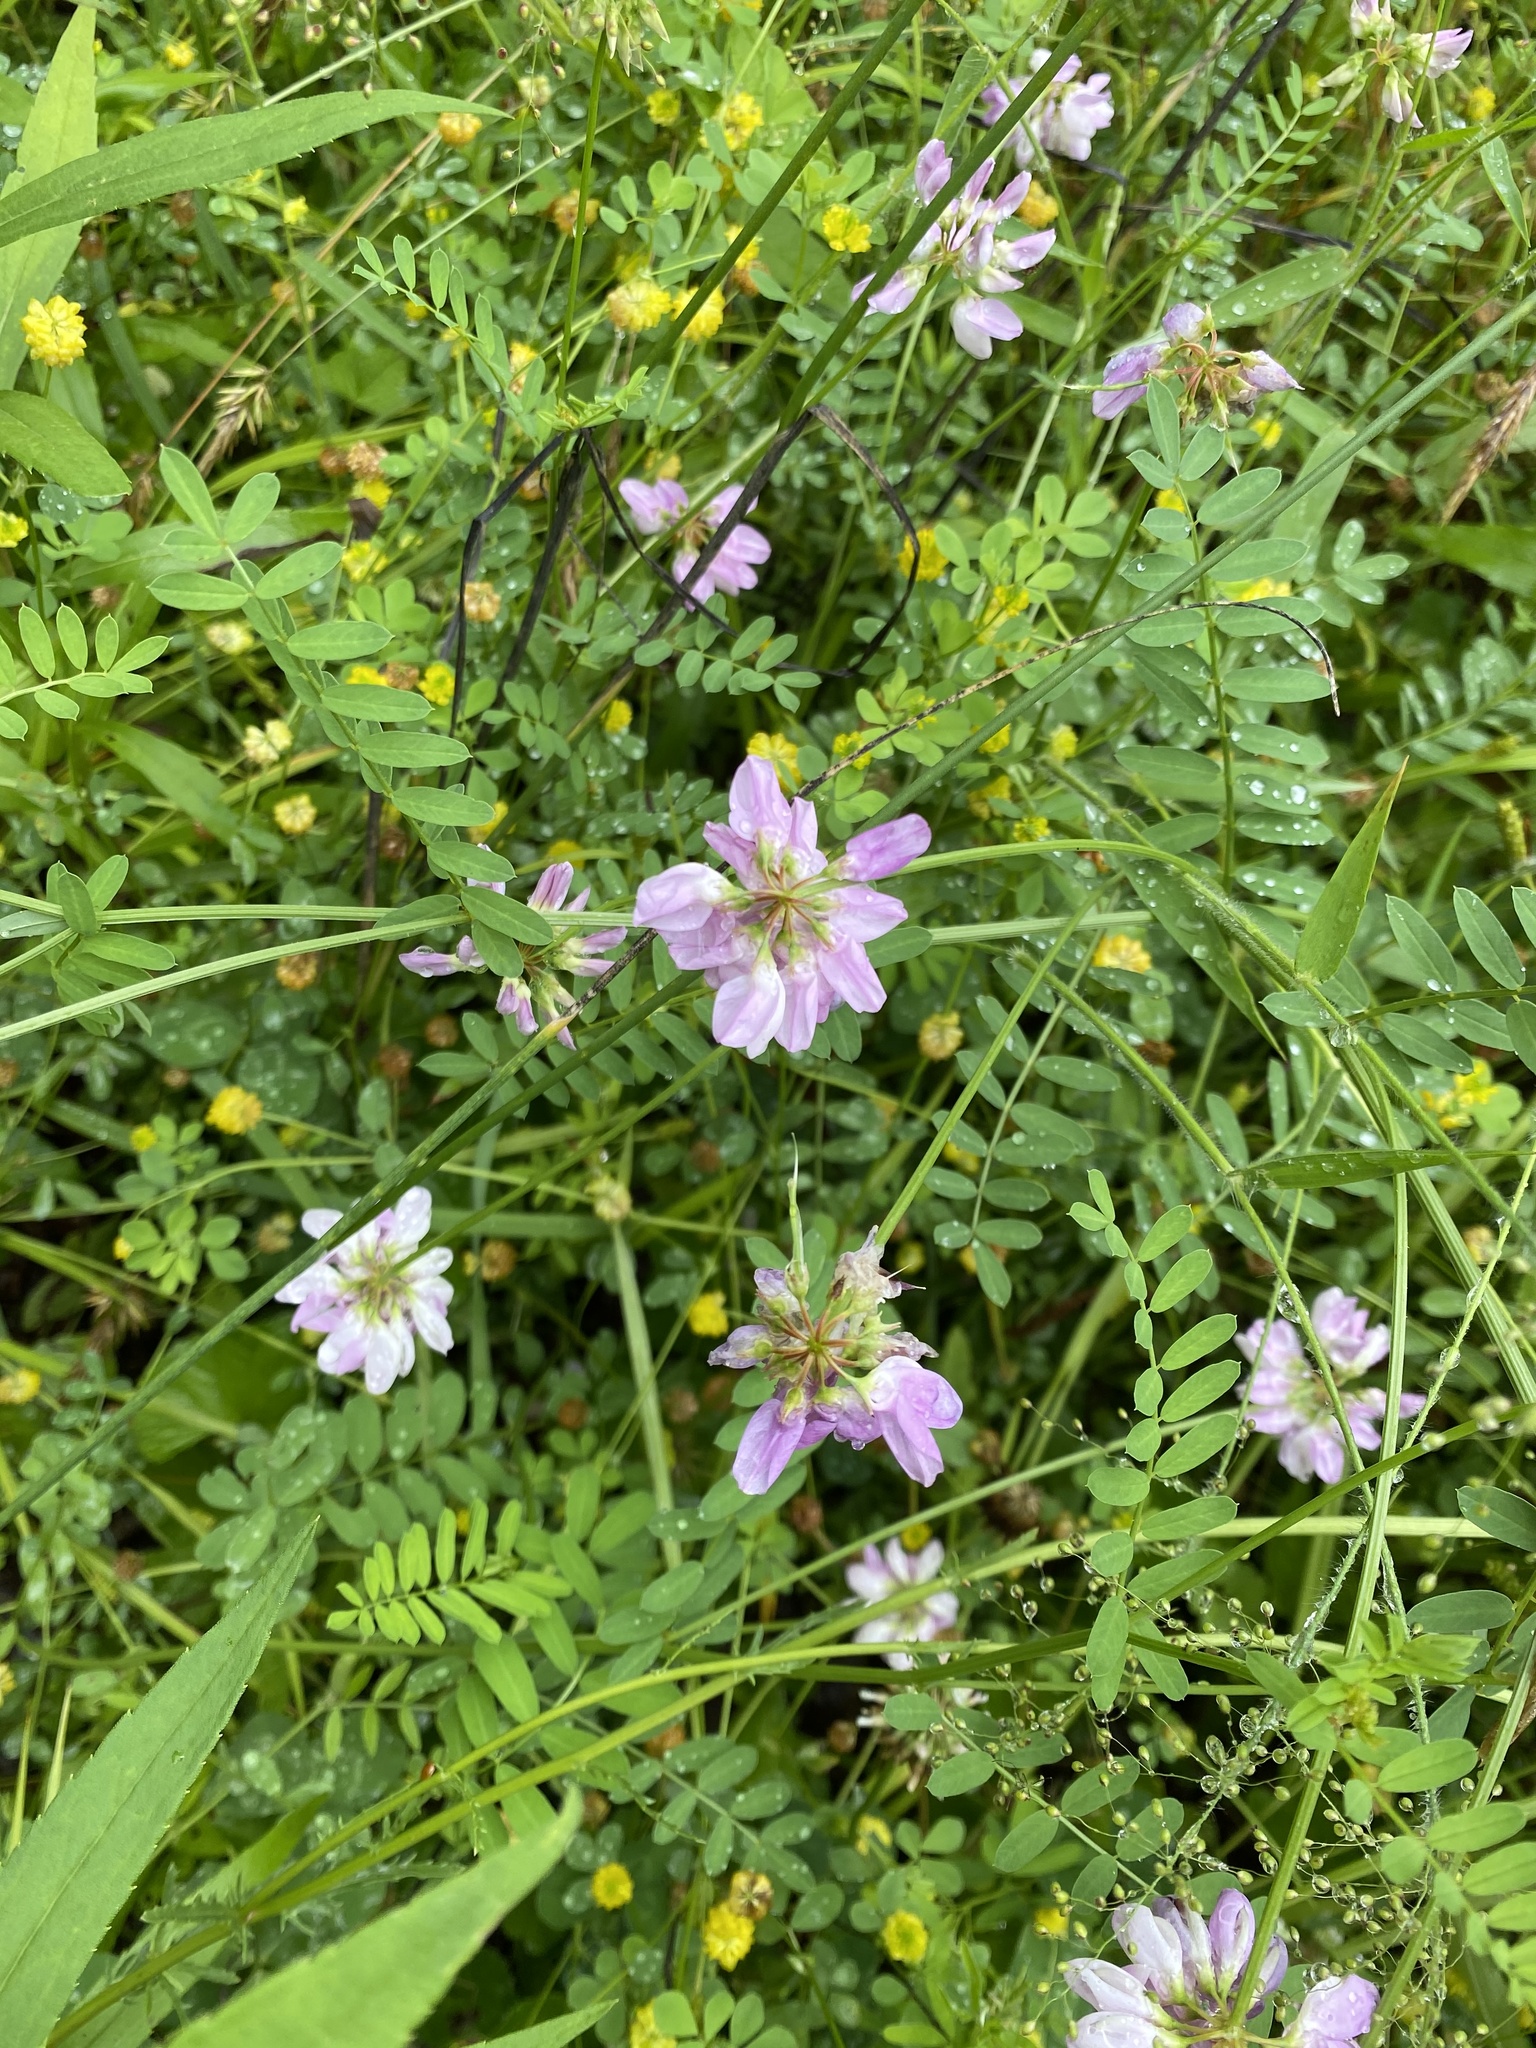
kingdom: Plantae
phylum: Tracheophyta
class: Magnoliopsida
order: Fabales
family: Fabaceae
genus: Coronilla
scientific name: Coronilla varia
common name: Crownvetch
